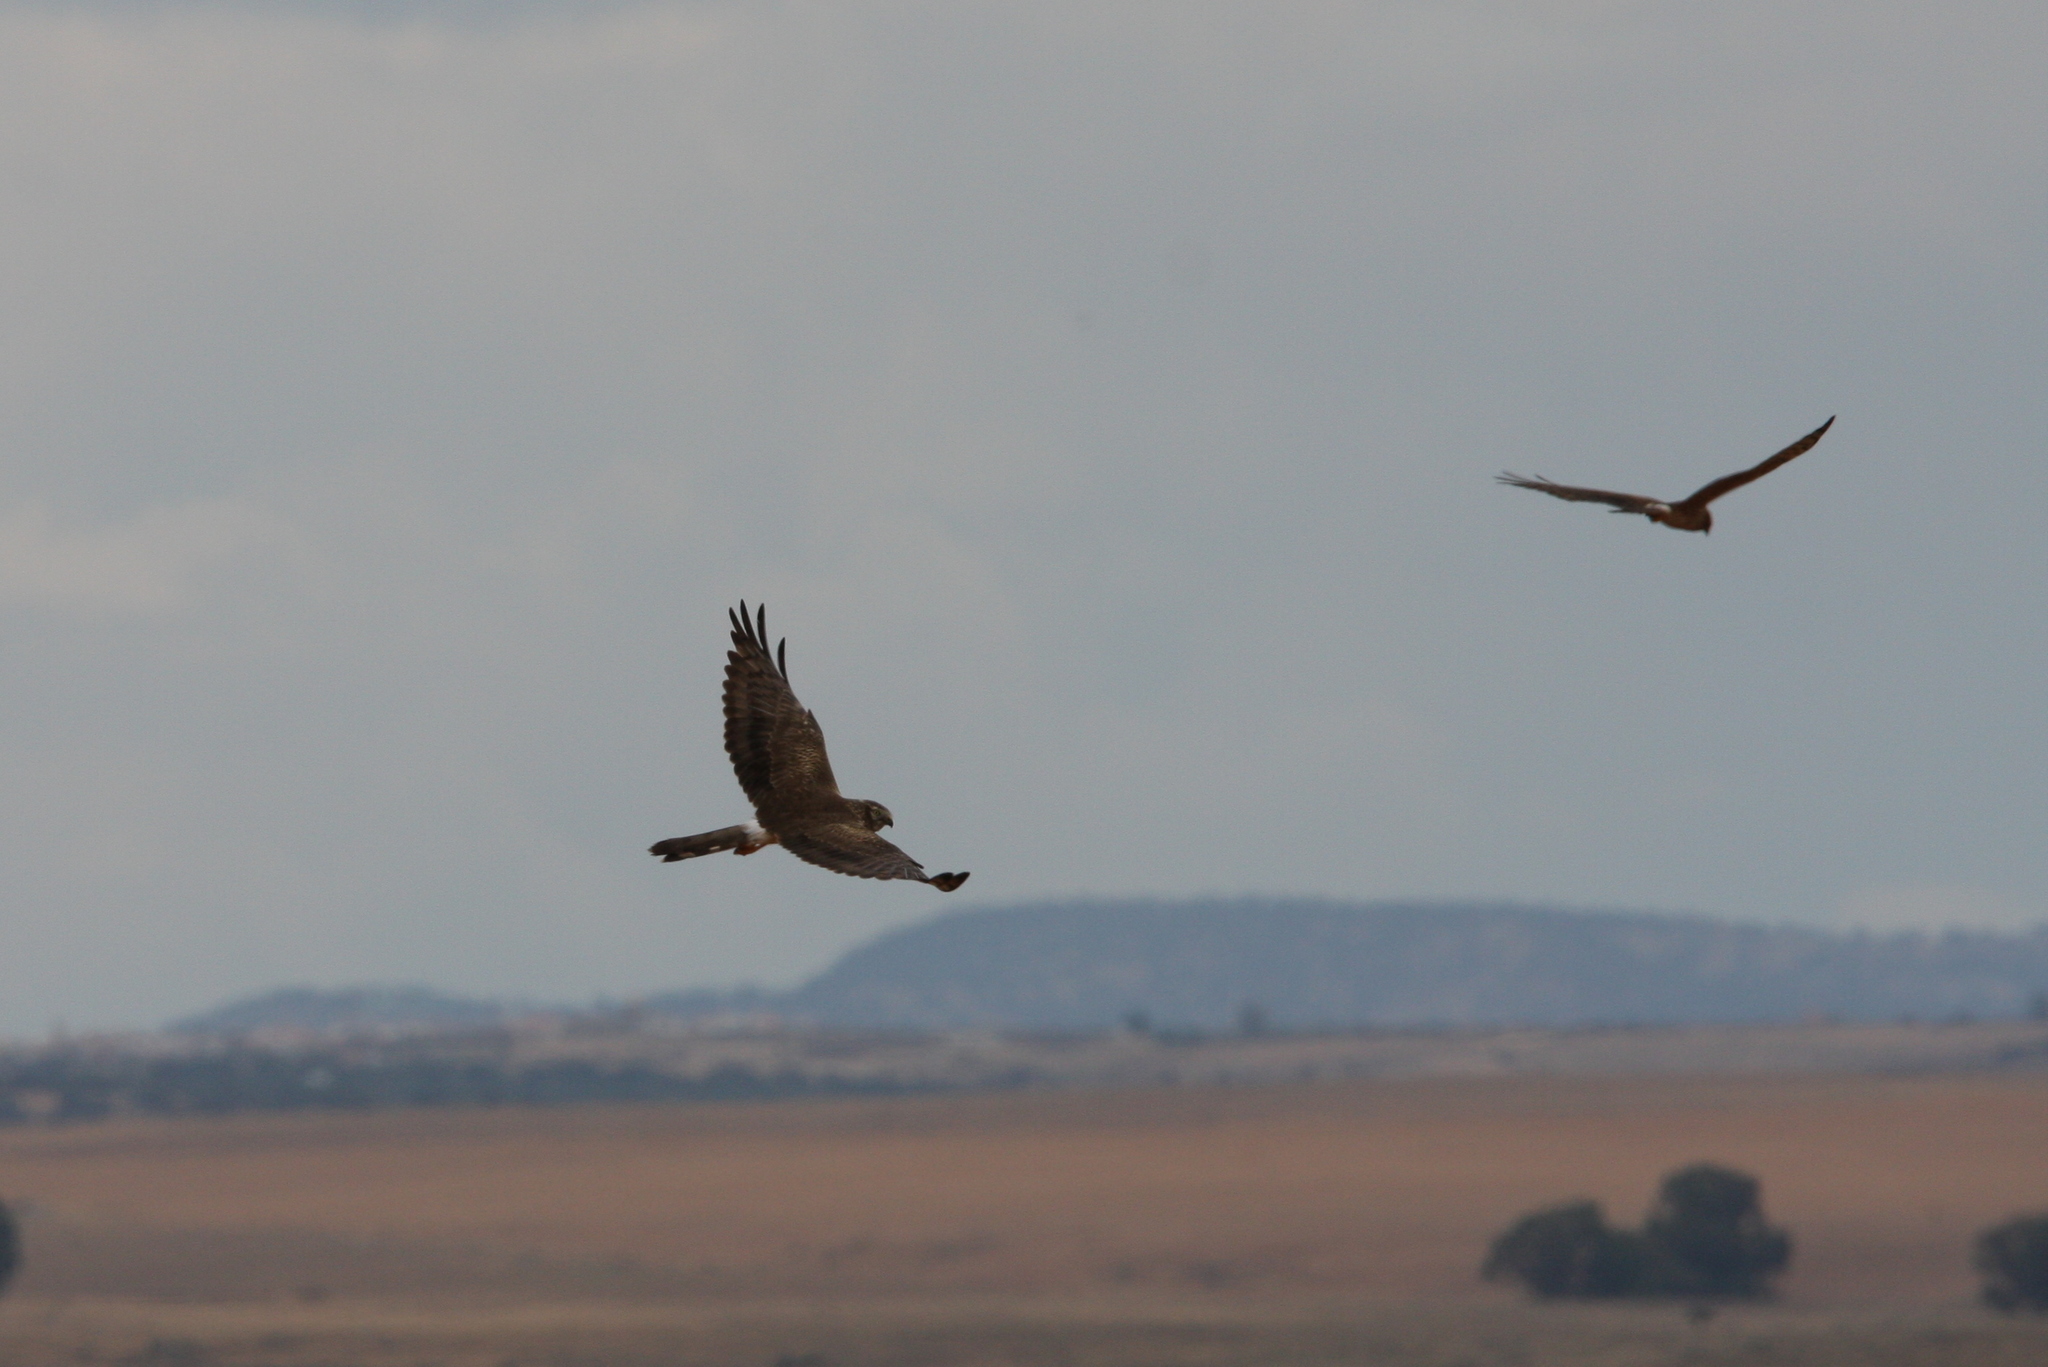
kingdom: Animalia
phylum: Chordata
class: Aves
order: Accipitriformes
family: Accipitridae
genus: Circus
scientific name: Circus pygargus
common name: Montagu's harrier
